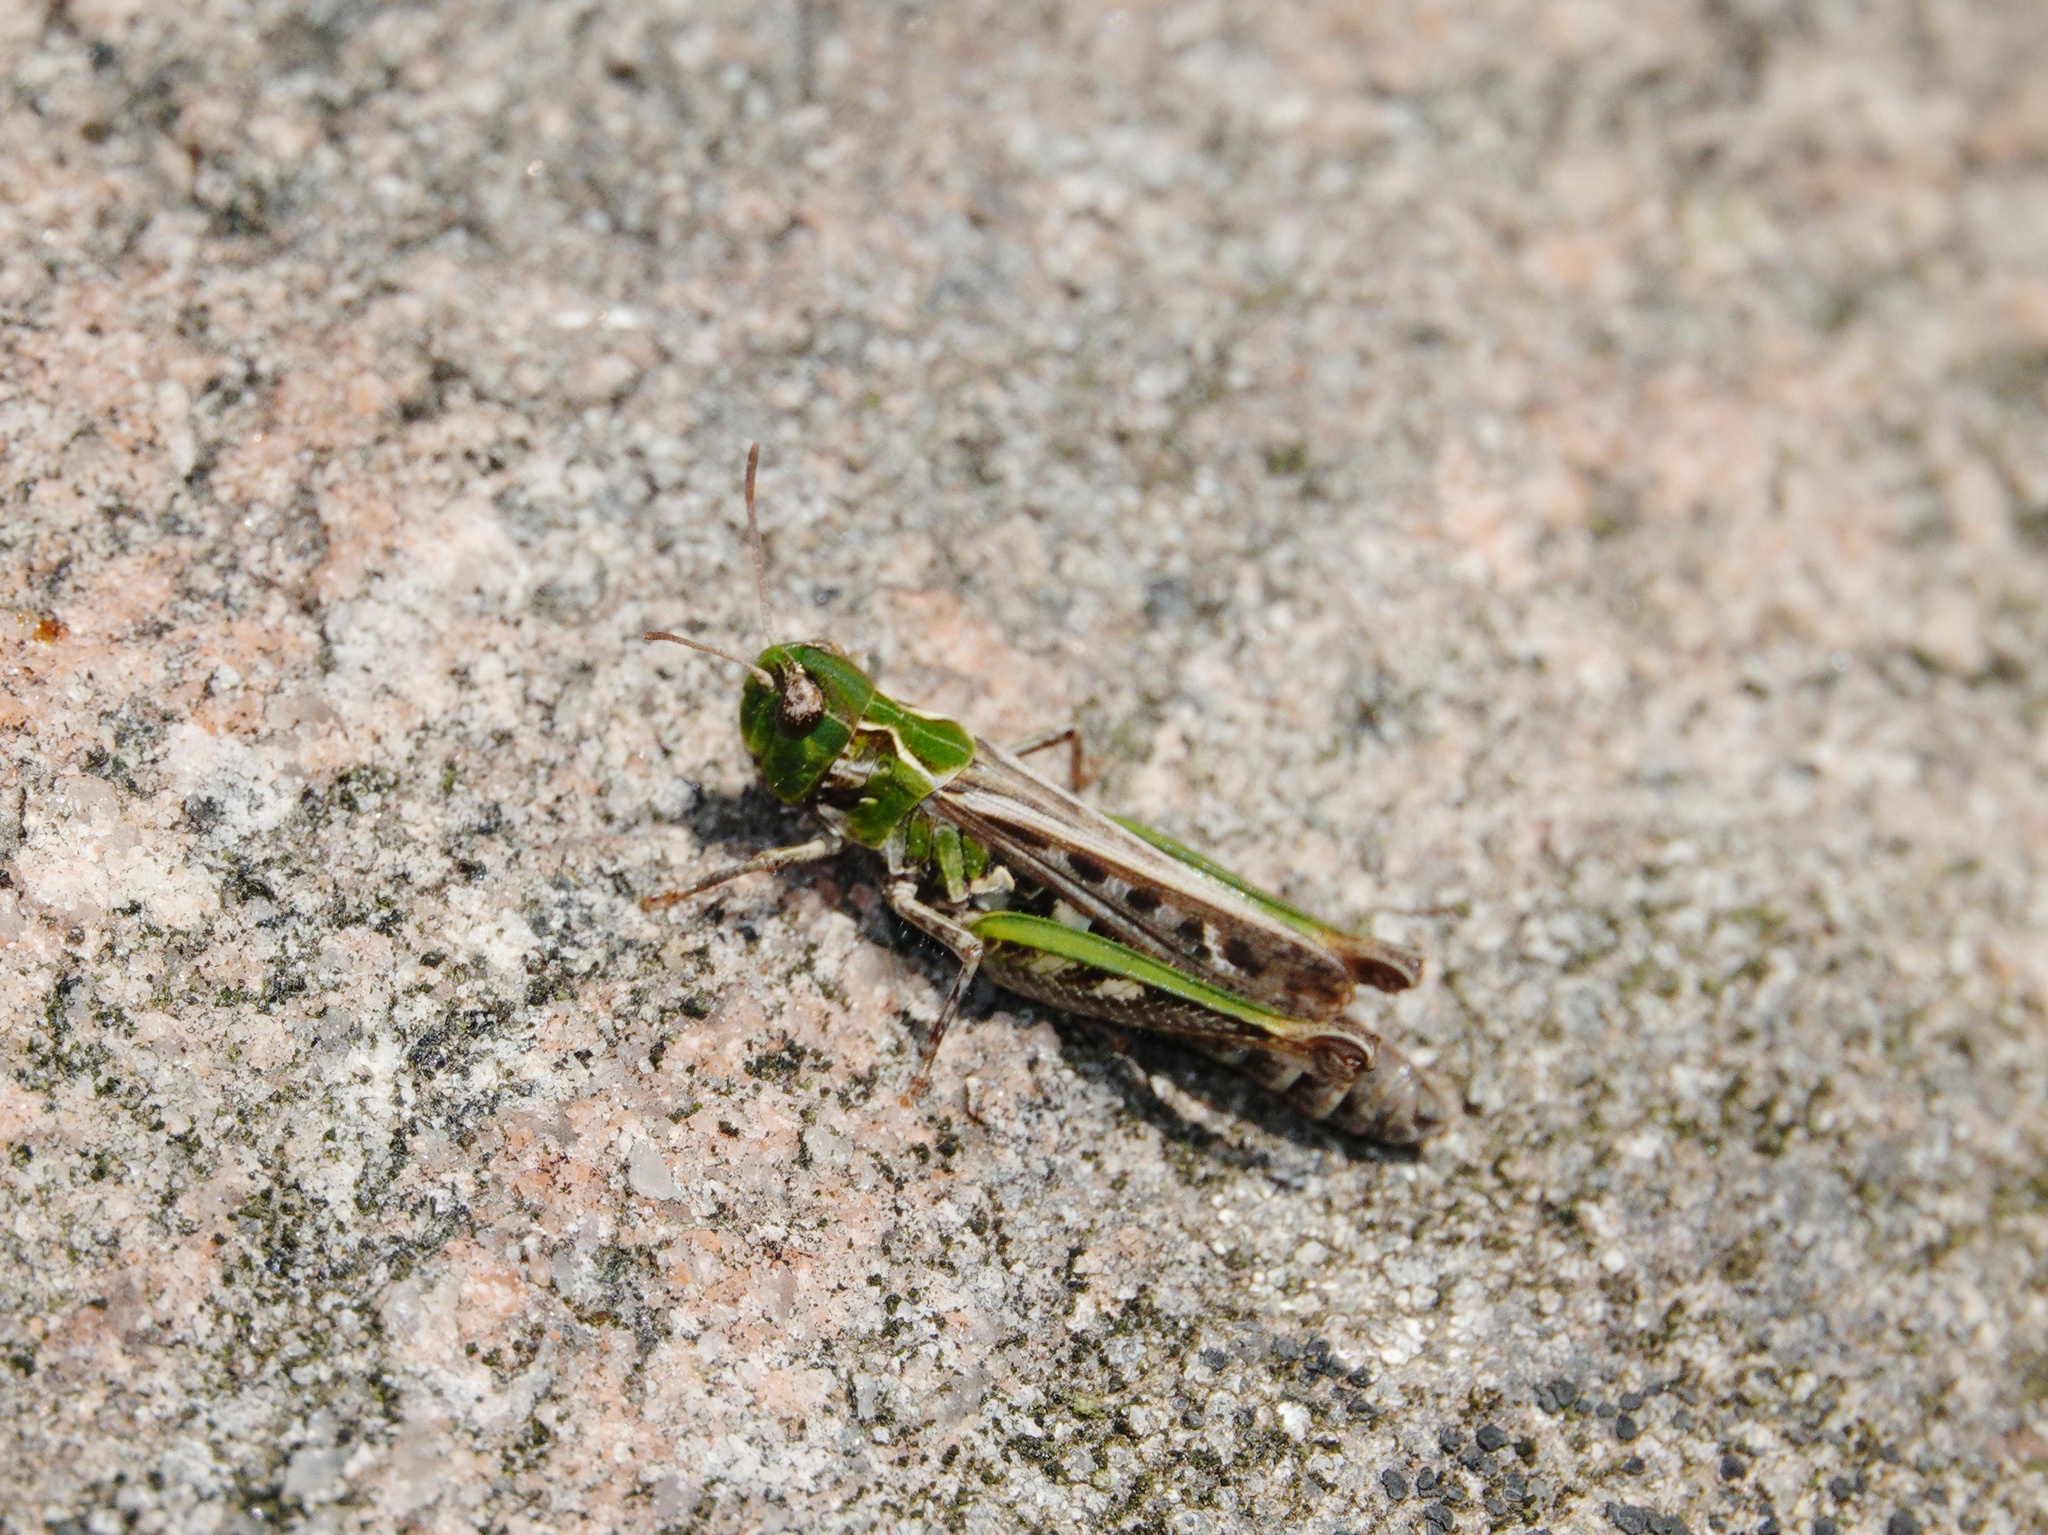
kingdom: Animalia
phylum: Arthropoda
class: Insecta
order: Orthoptera
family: Acrididae
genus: Myrmeleotettix
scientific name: Myrmeleotettix maculatus
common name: Mottled grasshopper
